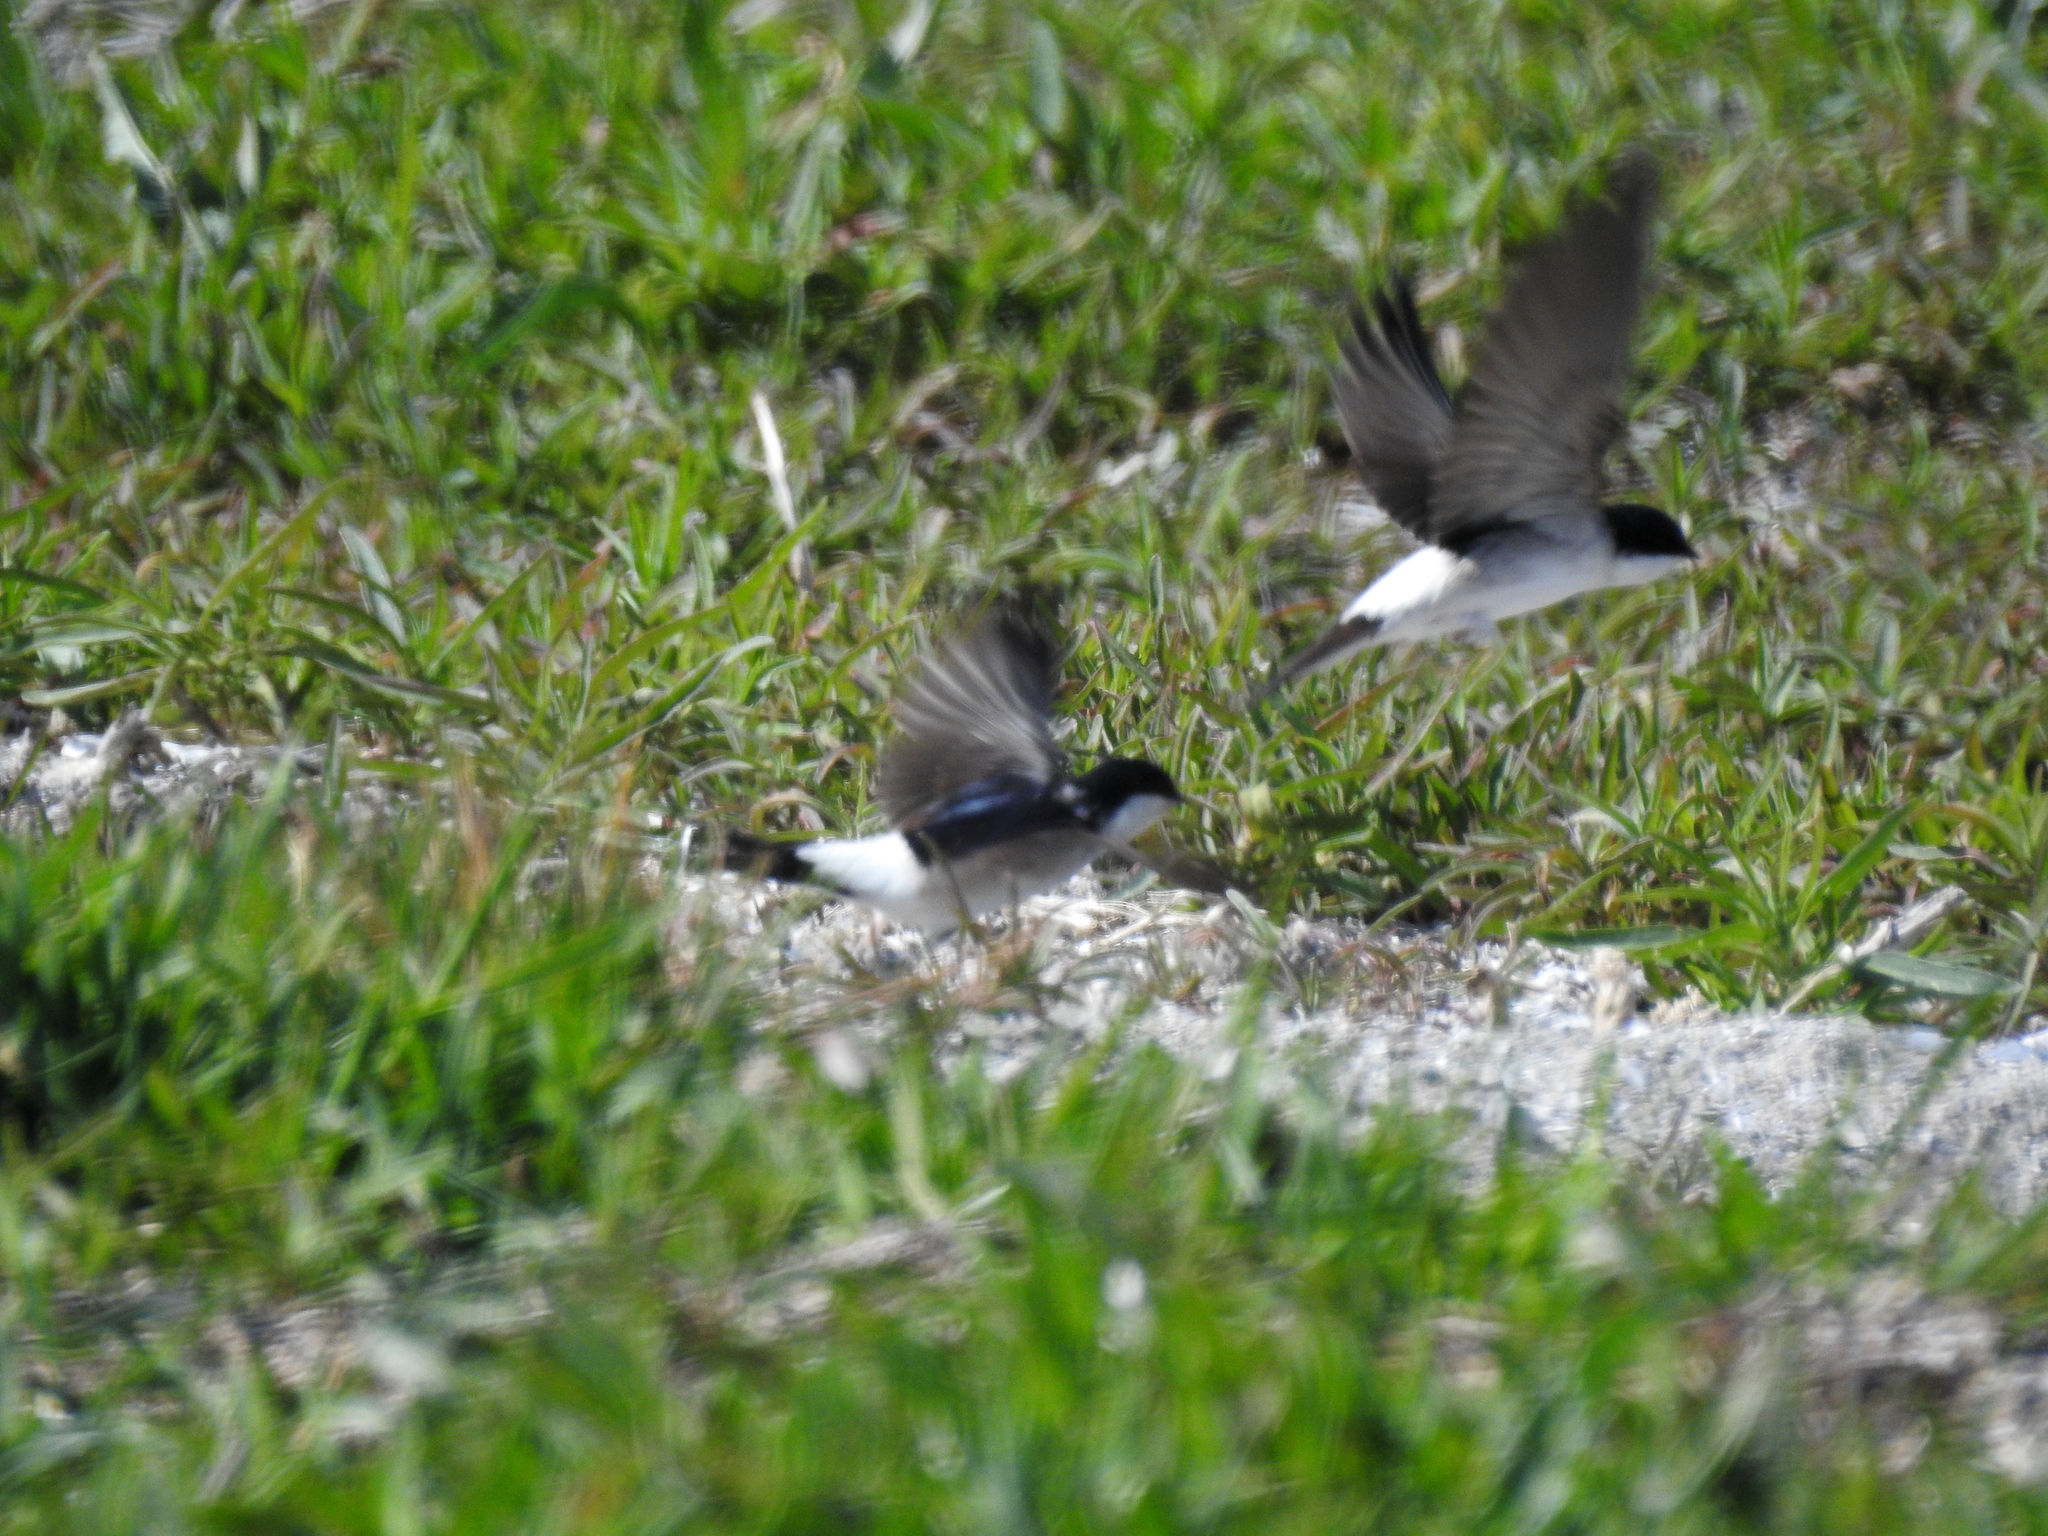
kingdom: Animalia
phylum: Chordata
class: Aves
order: Passeriformes
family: Hirundinidae
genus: Delichon
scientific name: Delichon urbicum
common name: Common house martin
